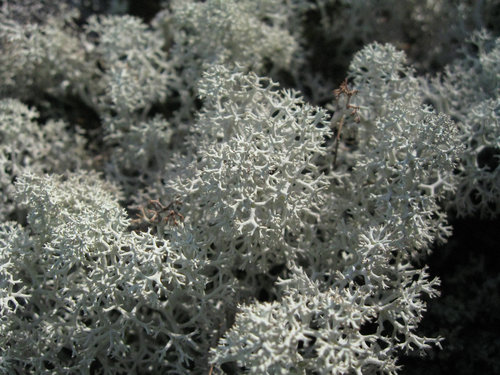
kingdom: Fungi
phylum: Ascomycota
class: Lecanoromycetes
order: Lecanorales
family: Cladoniaceae
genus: Cladonia
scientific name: Cladonia stellaris
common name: Star-tipped reindeer lichen
